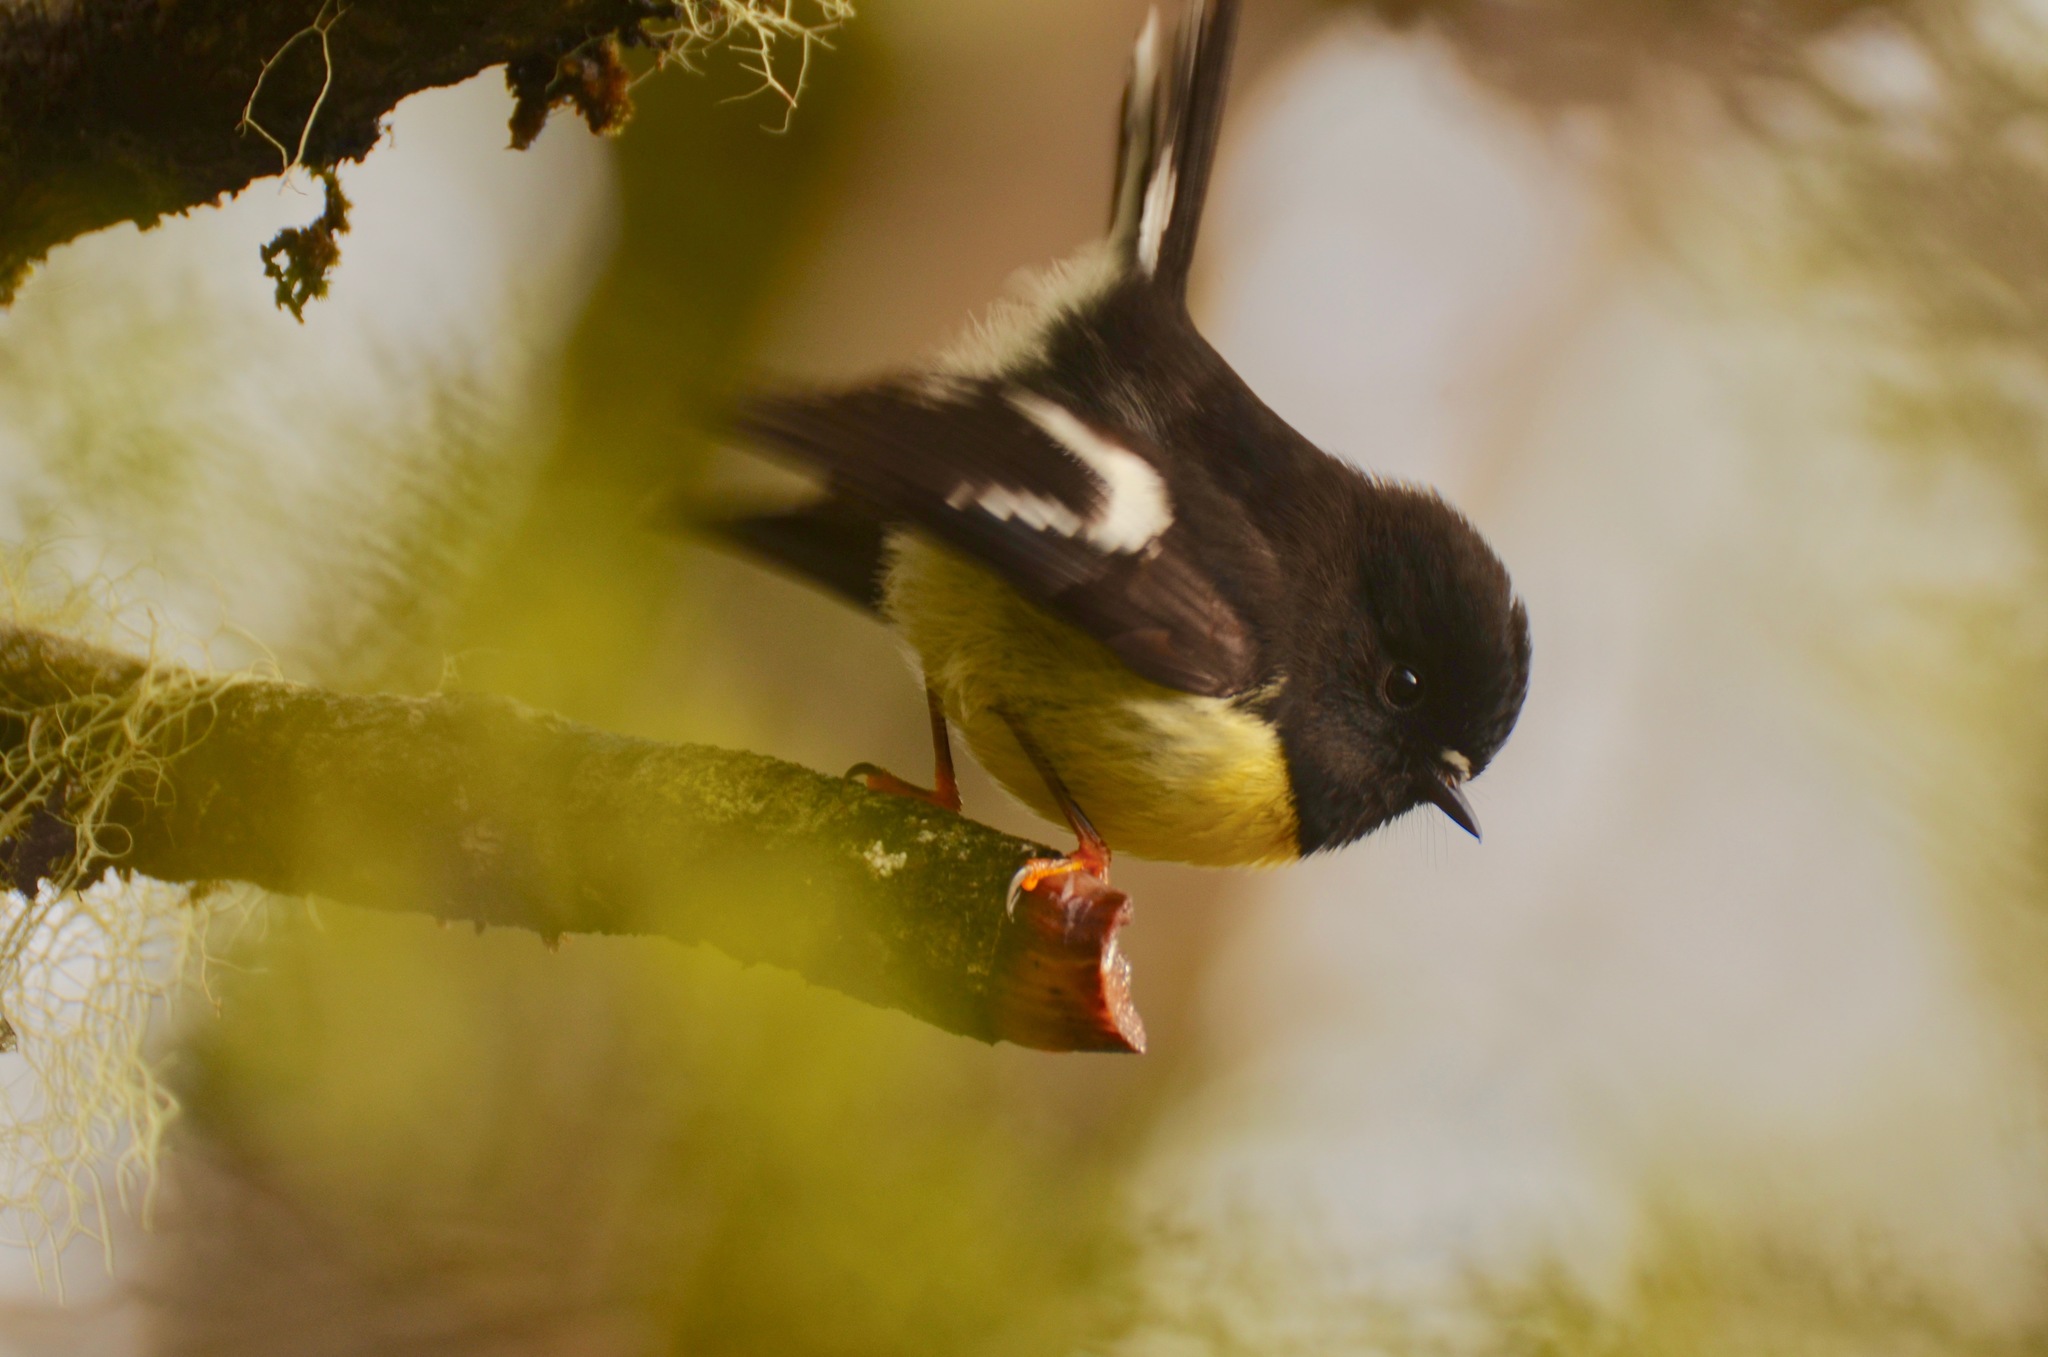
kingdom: Animalia
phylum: Chordata
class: Aves
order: Passeriformes
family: Petroicidae
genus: Petroica
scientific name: Petroica macrocephala
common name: Tomtit
